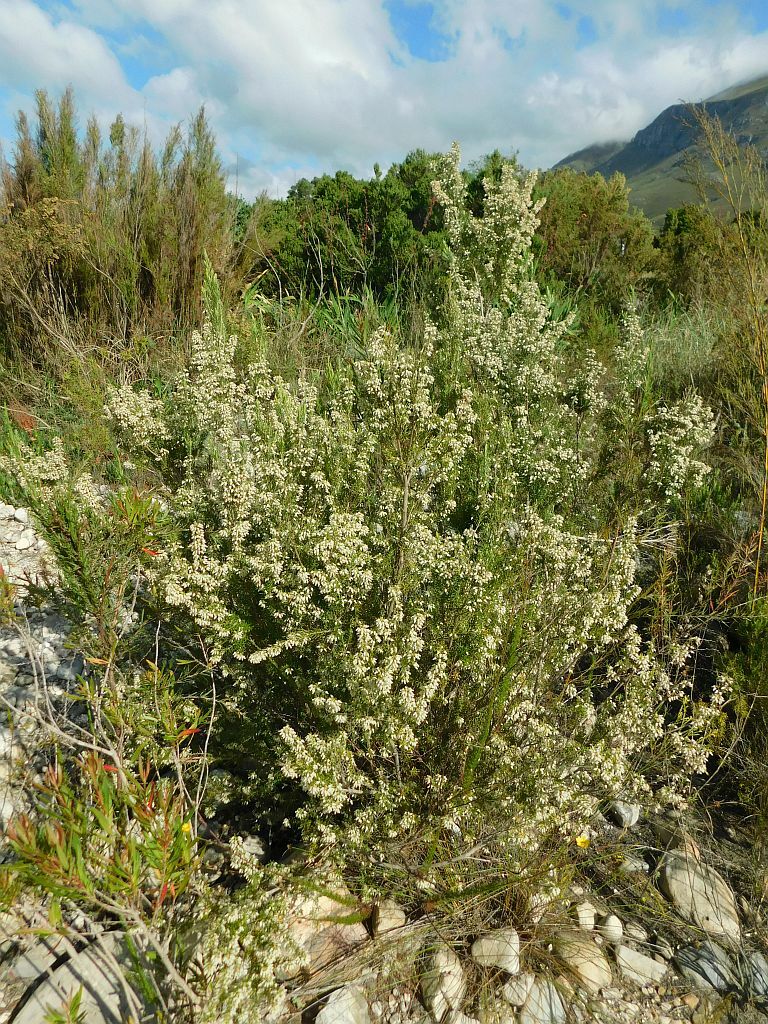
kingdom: Plantae
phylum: Tracheophyta
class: Magnoliopsida
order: Ericales
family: Ericaceae
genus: Erica
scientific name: Erica caffra
